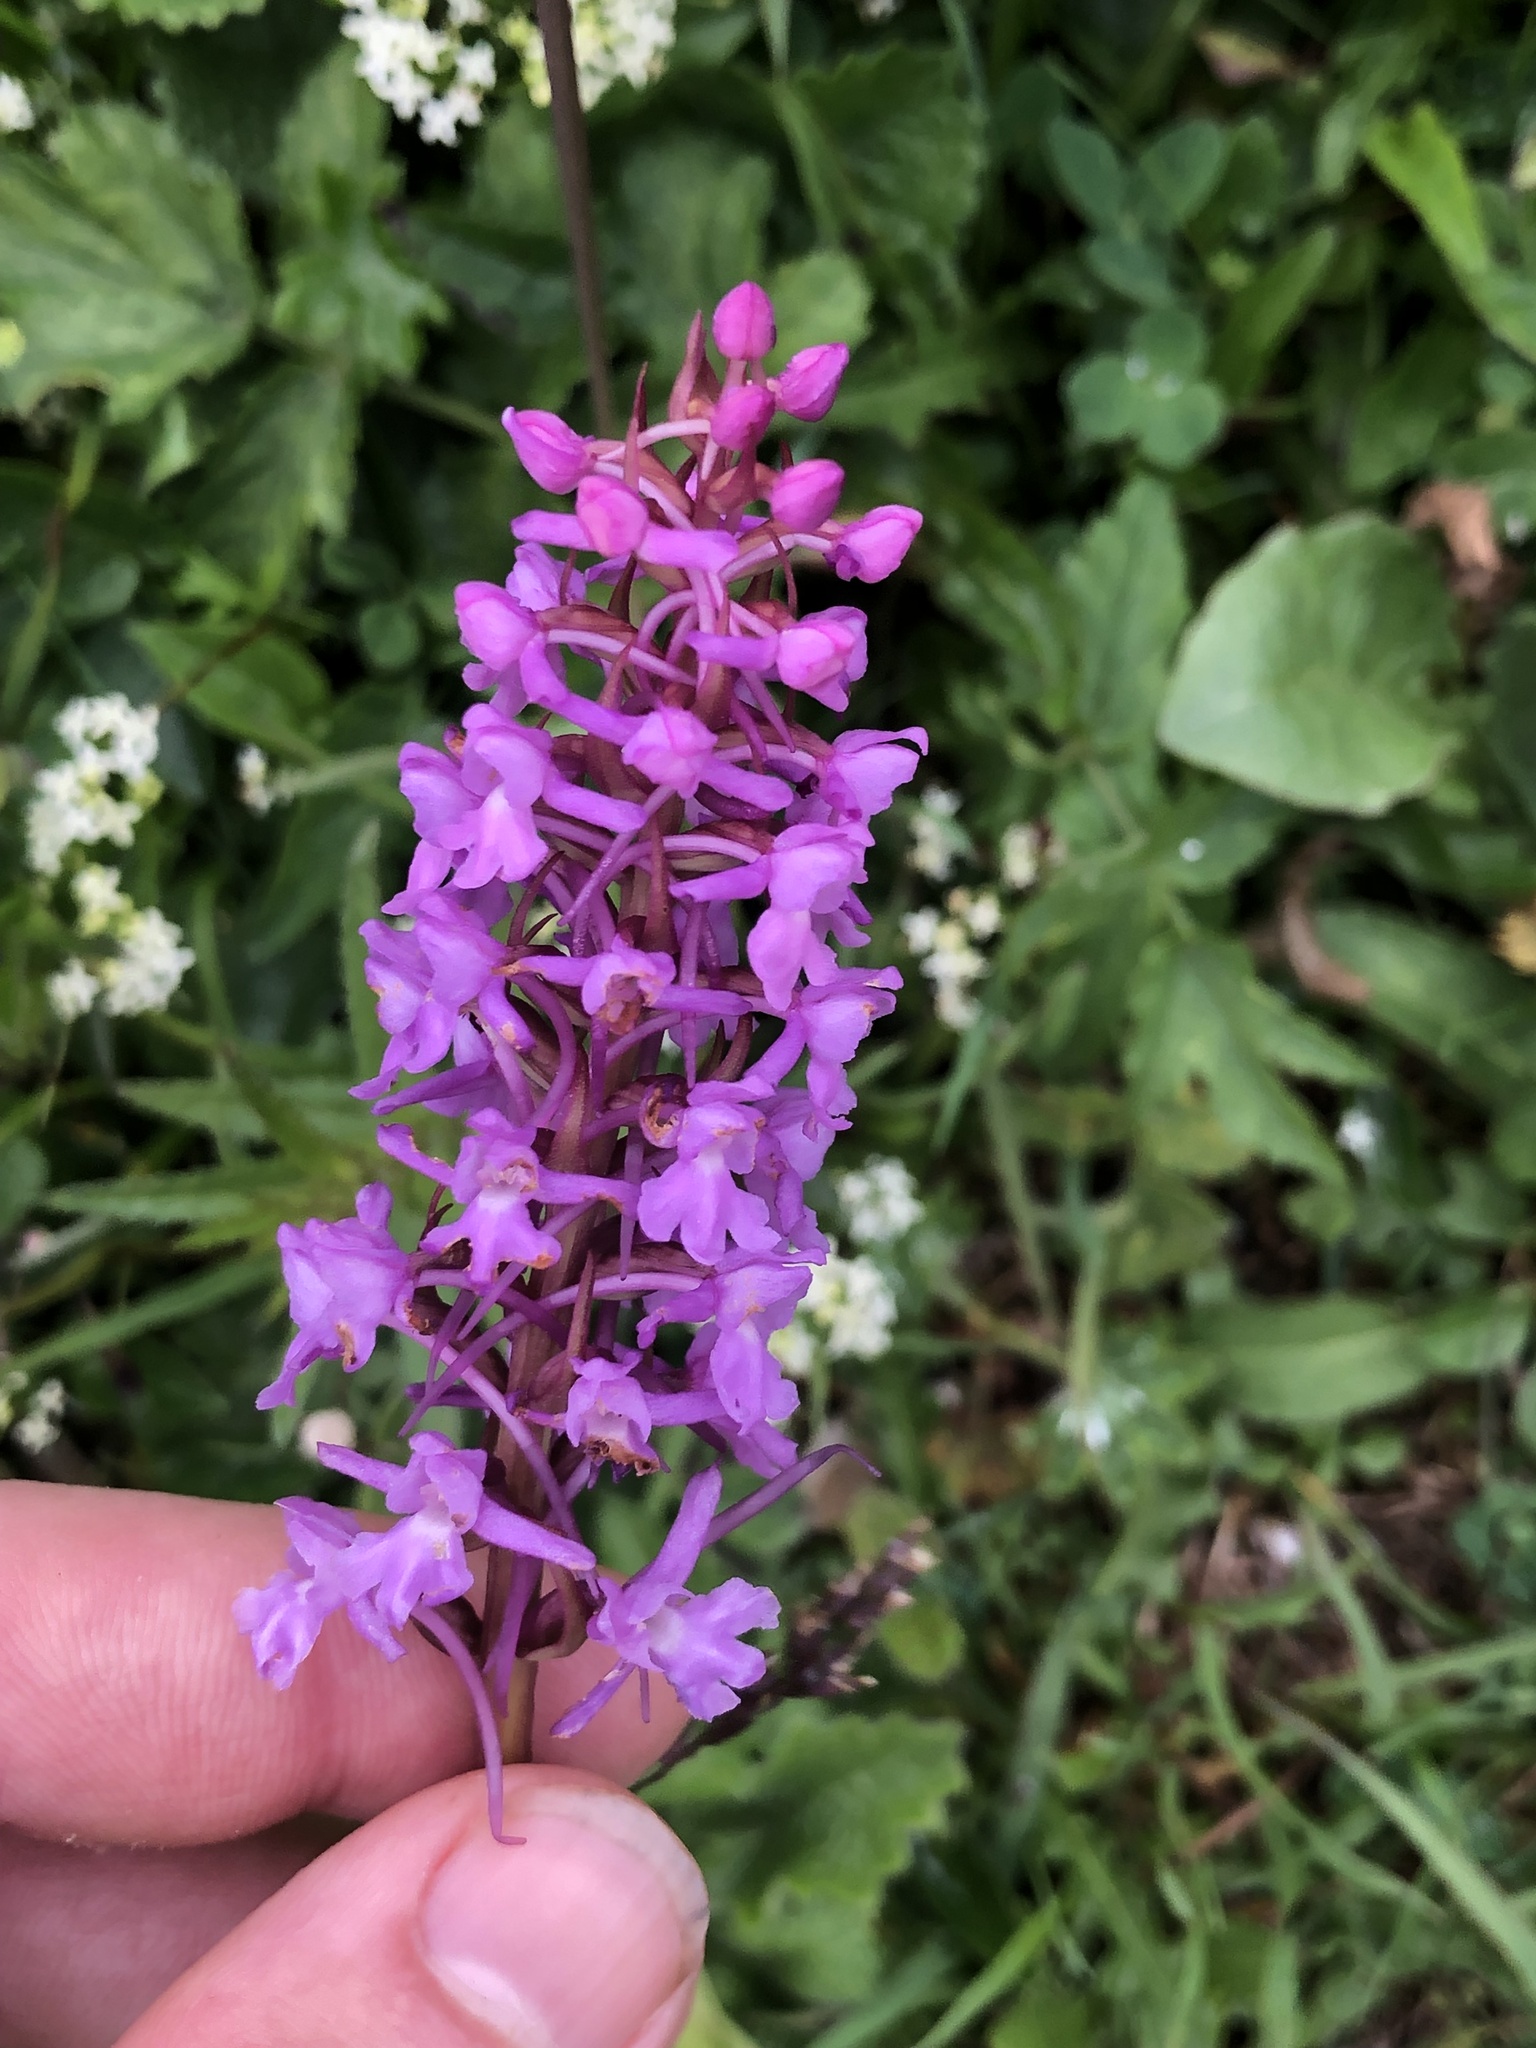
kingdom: Plantae
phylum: Tracheophyta
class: Liliopsida
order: Asparagales
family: Orchidaceae
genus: Gymnadenia
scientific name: Gymnadenia conopsea
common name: Fragrant orchid
